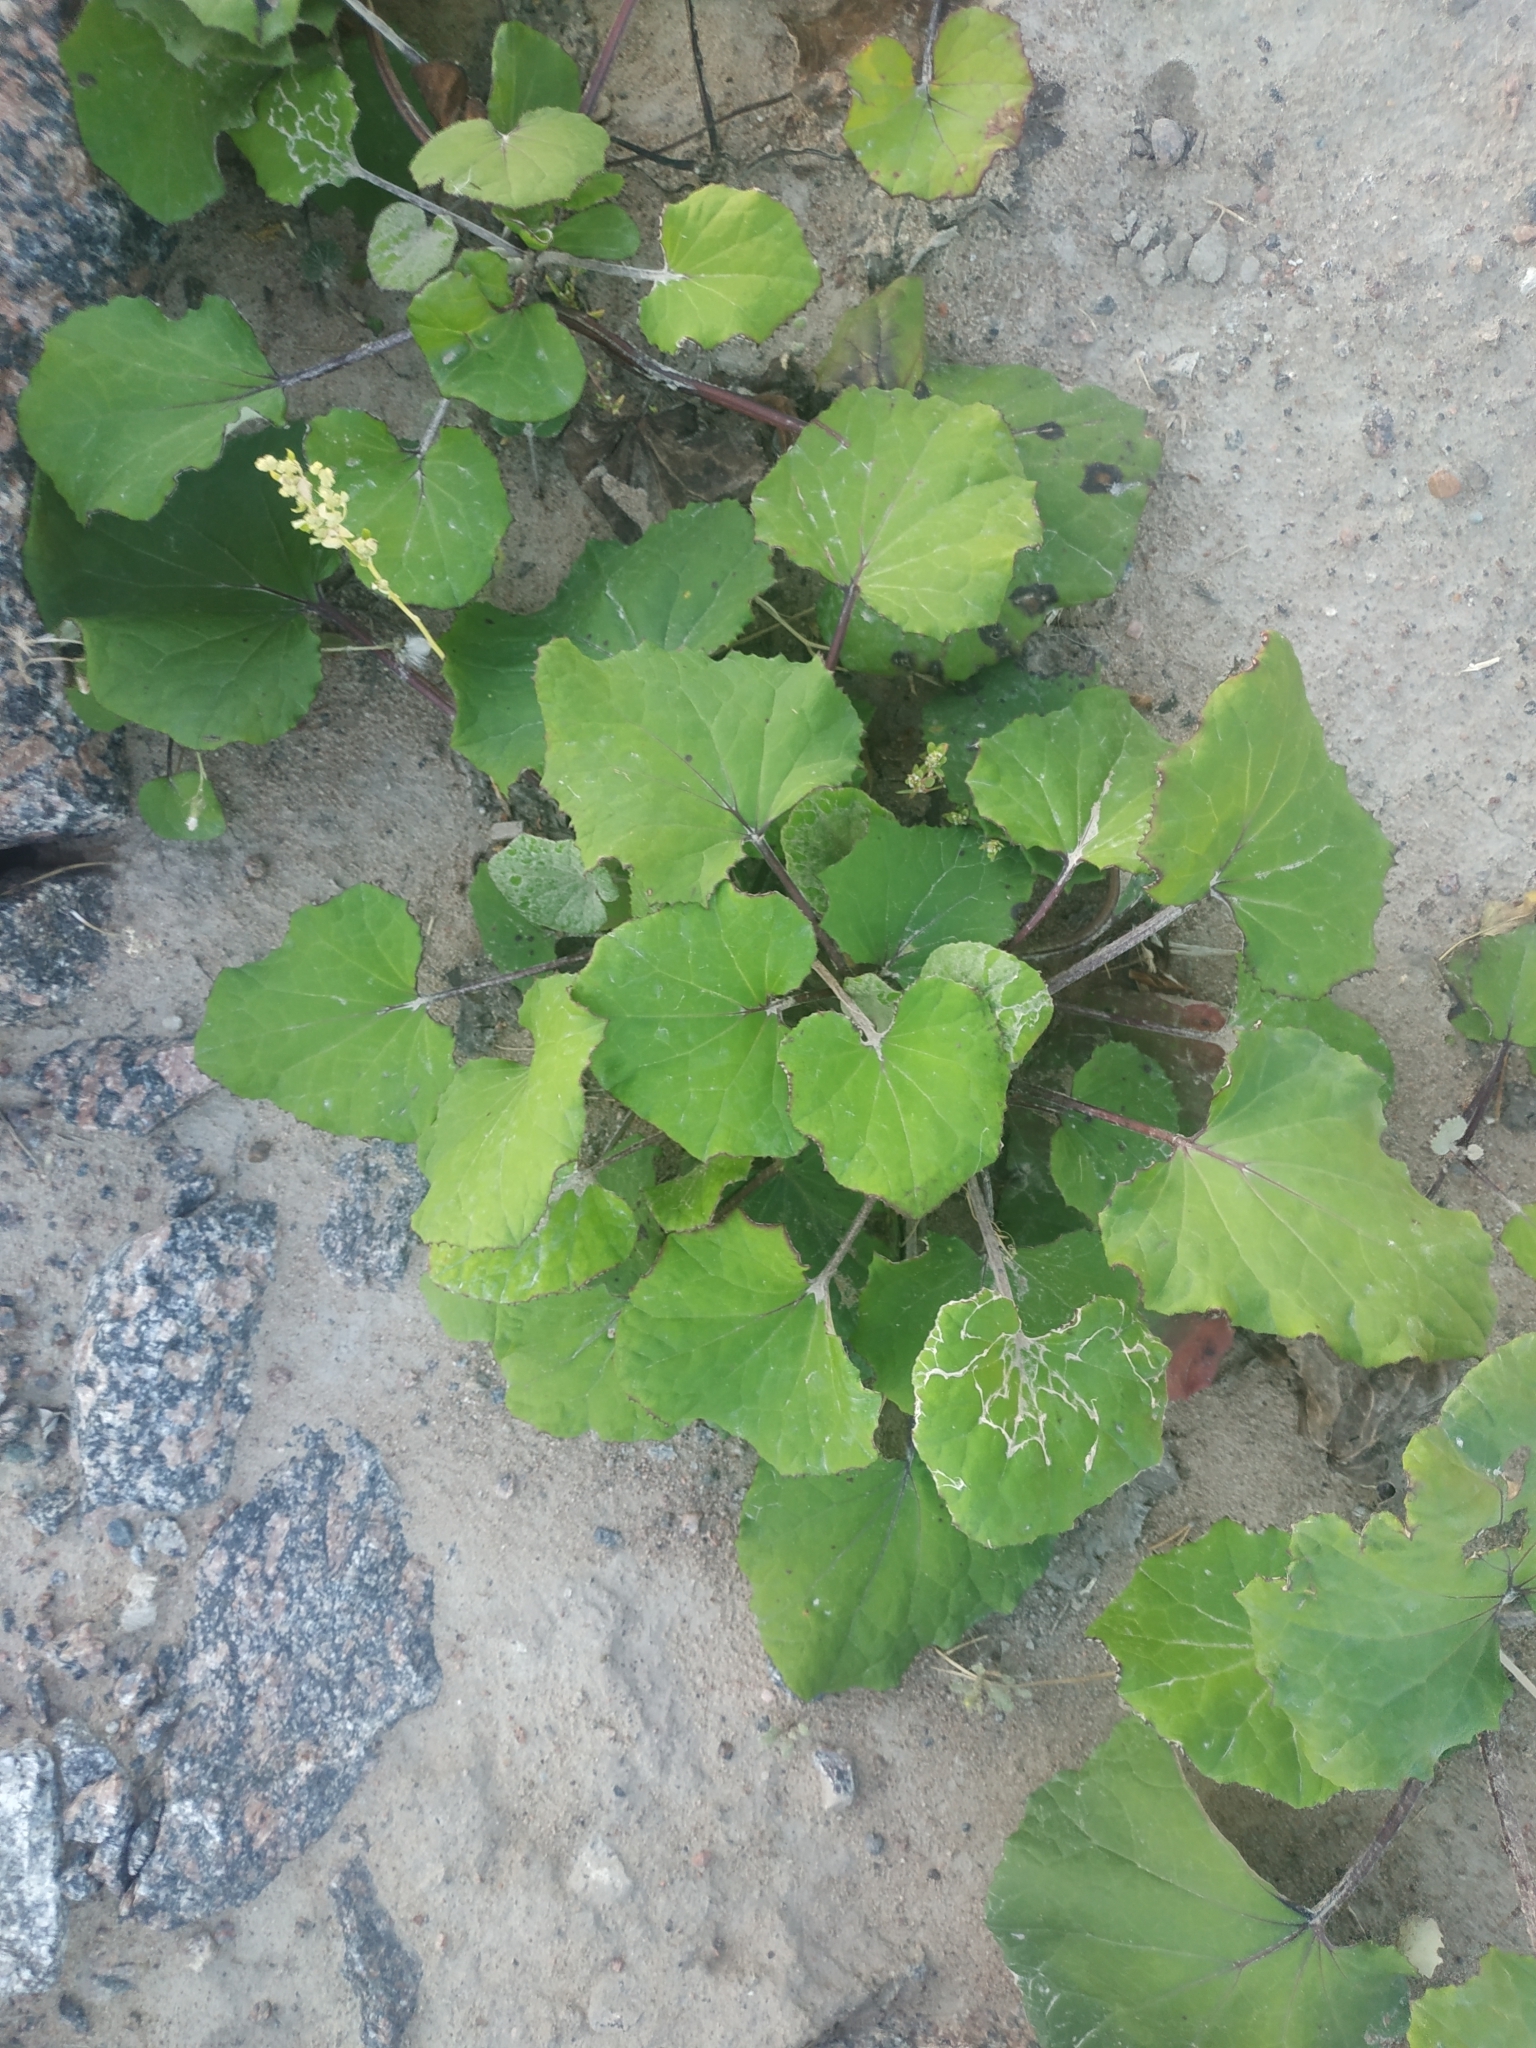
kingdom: Plantae
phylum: Tracheophyta
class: Magnoliopsida
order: Asterales
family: Asteraceae
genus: Tussilago
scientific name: Tussilago farfara
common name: Coltsfoot
